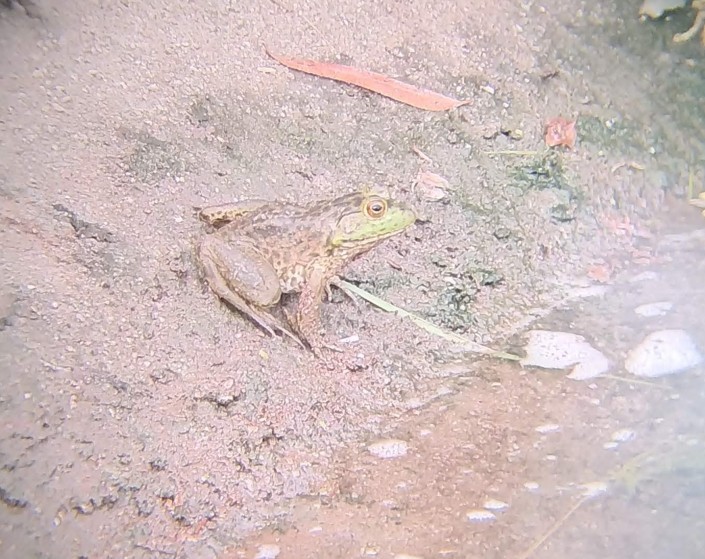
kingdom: Animalia
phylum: Chordata
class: Amphibia
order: Anura
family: Ranidae
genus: Lithobates
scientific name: Lithobates catesbeianus
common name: American bullfrog
